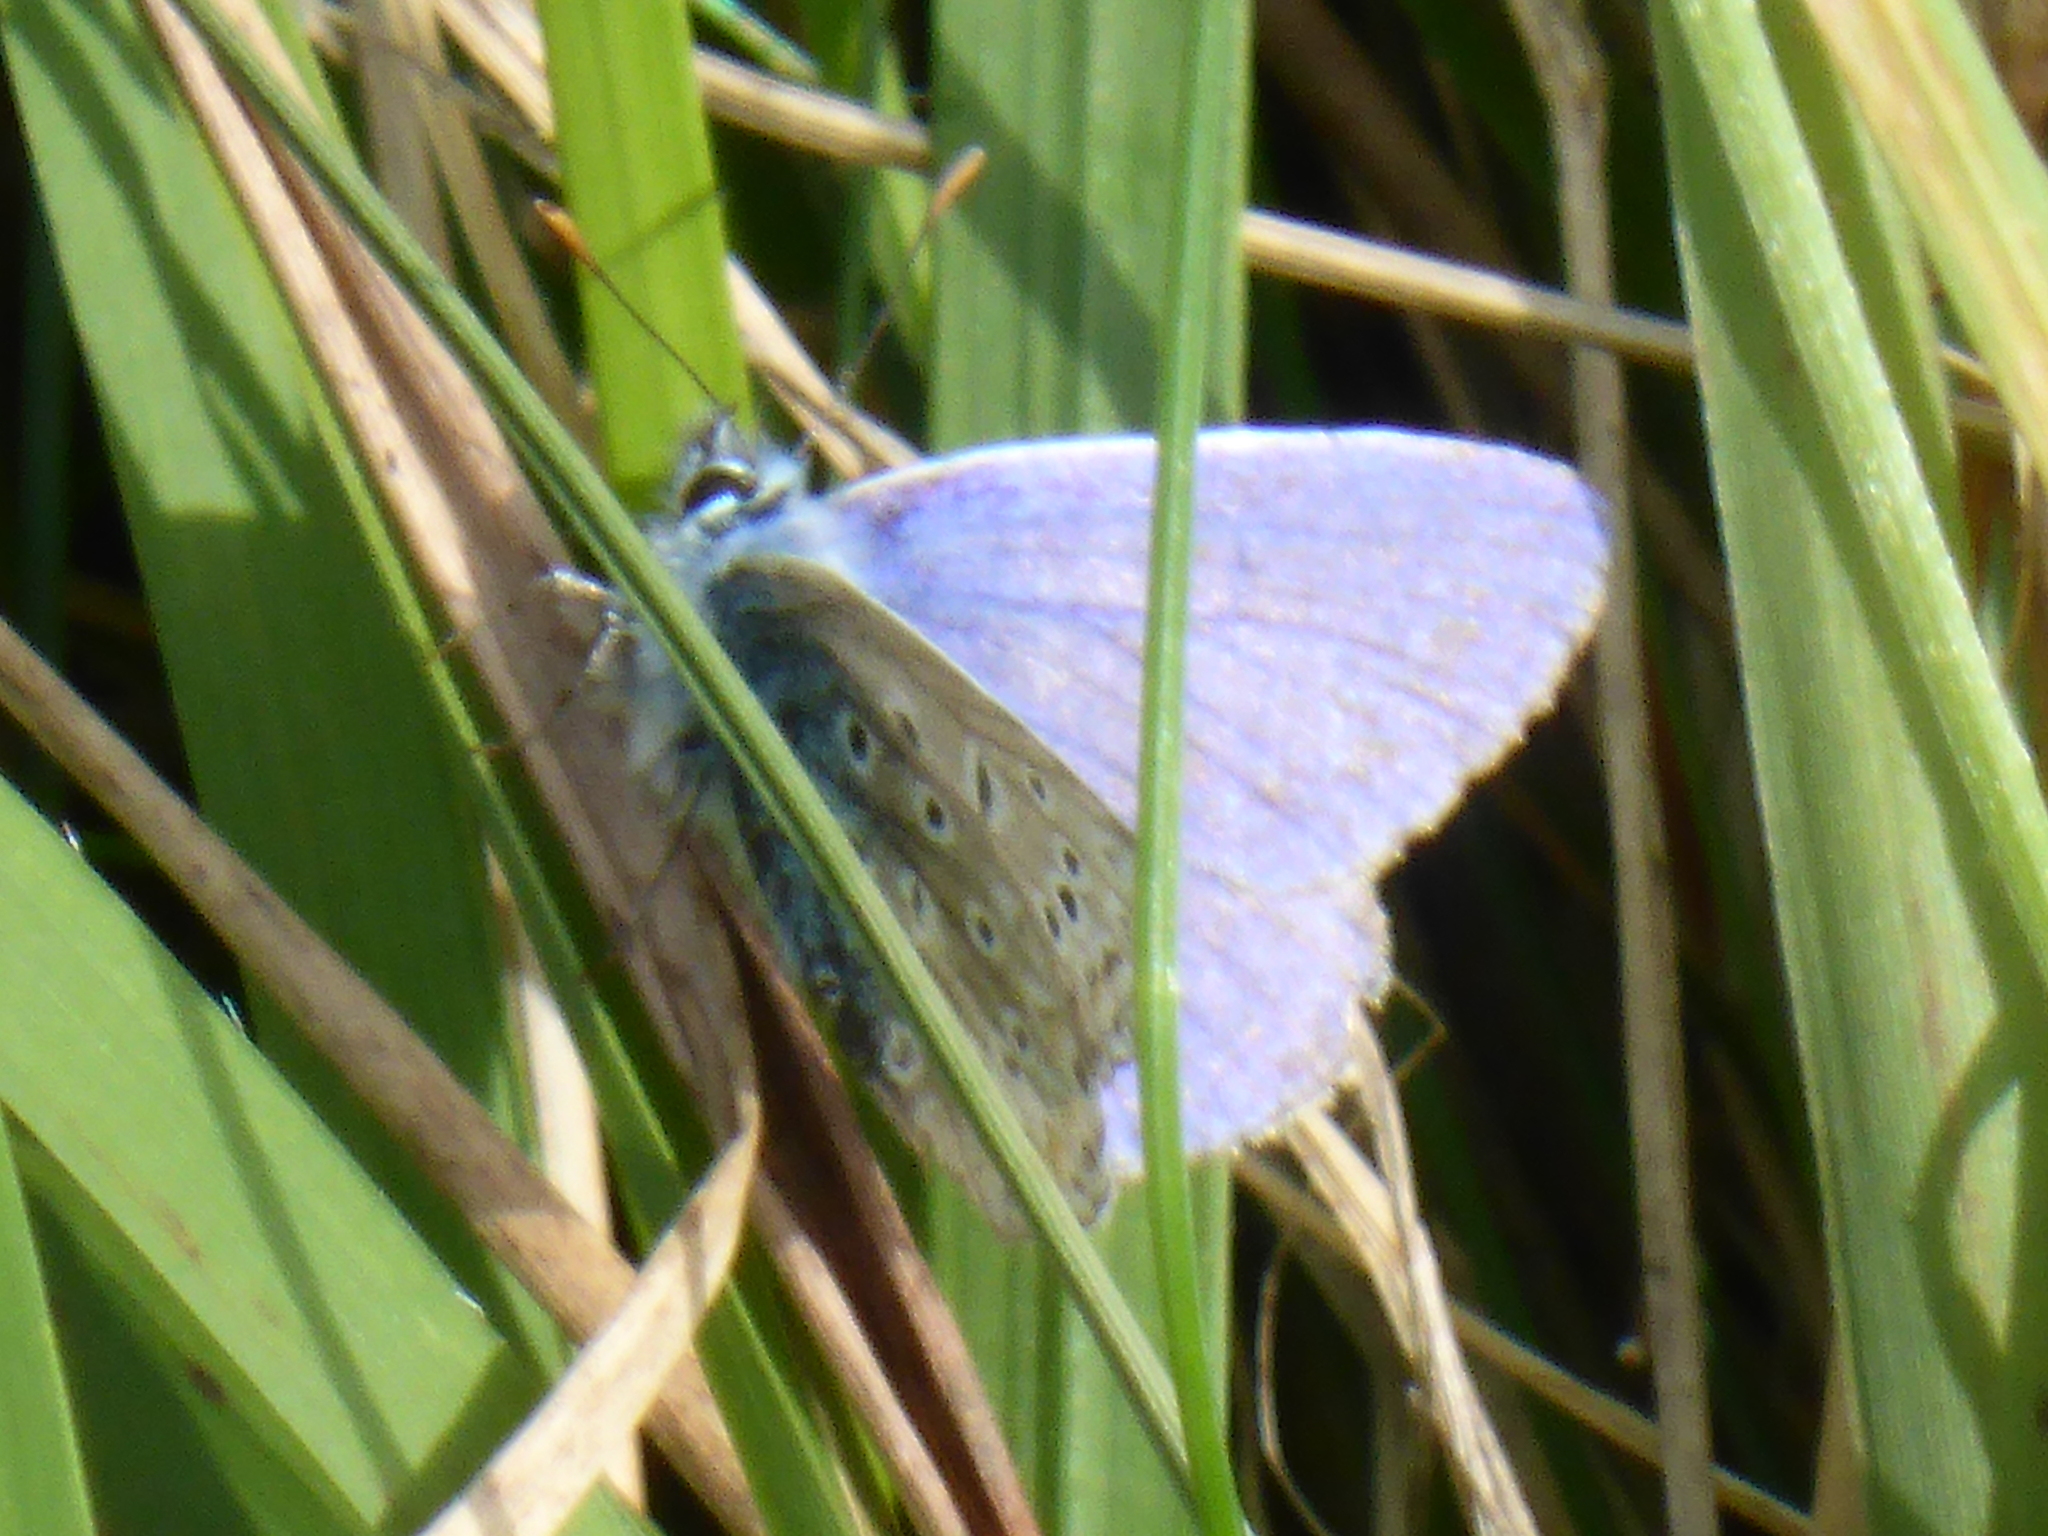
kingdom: Animalia
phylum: Arthropoda
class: Insecta
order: Lepidoptera
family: Lycaenidae
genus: Polyommatus
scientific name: Polyommatus icarus
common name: Common blue
